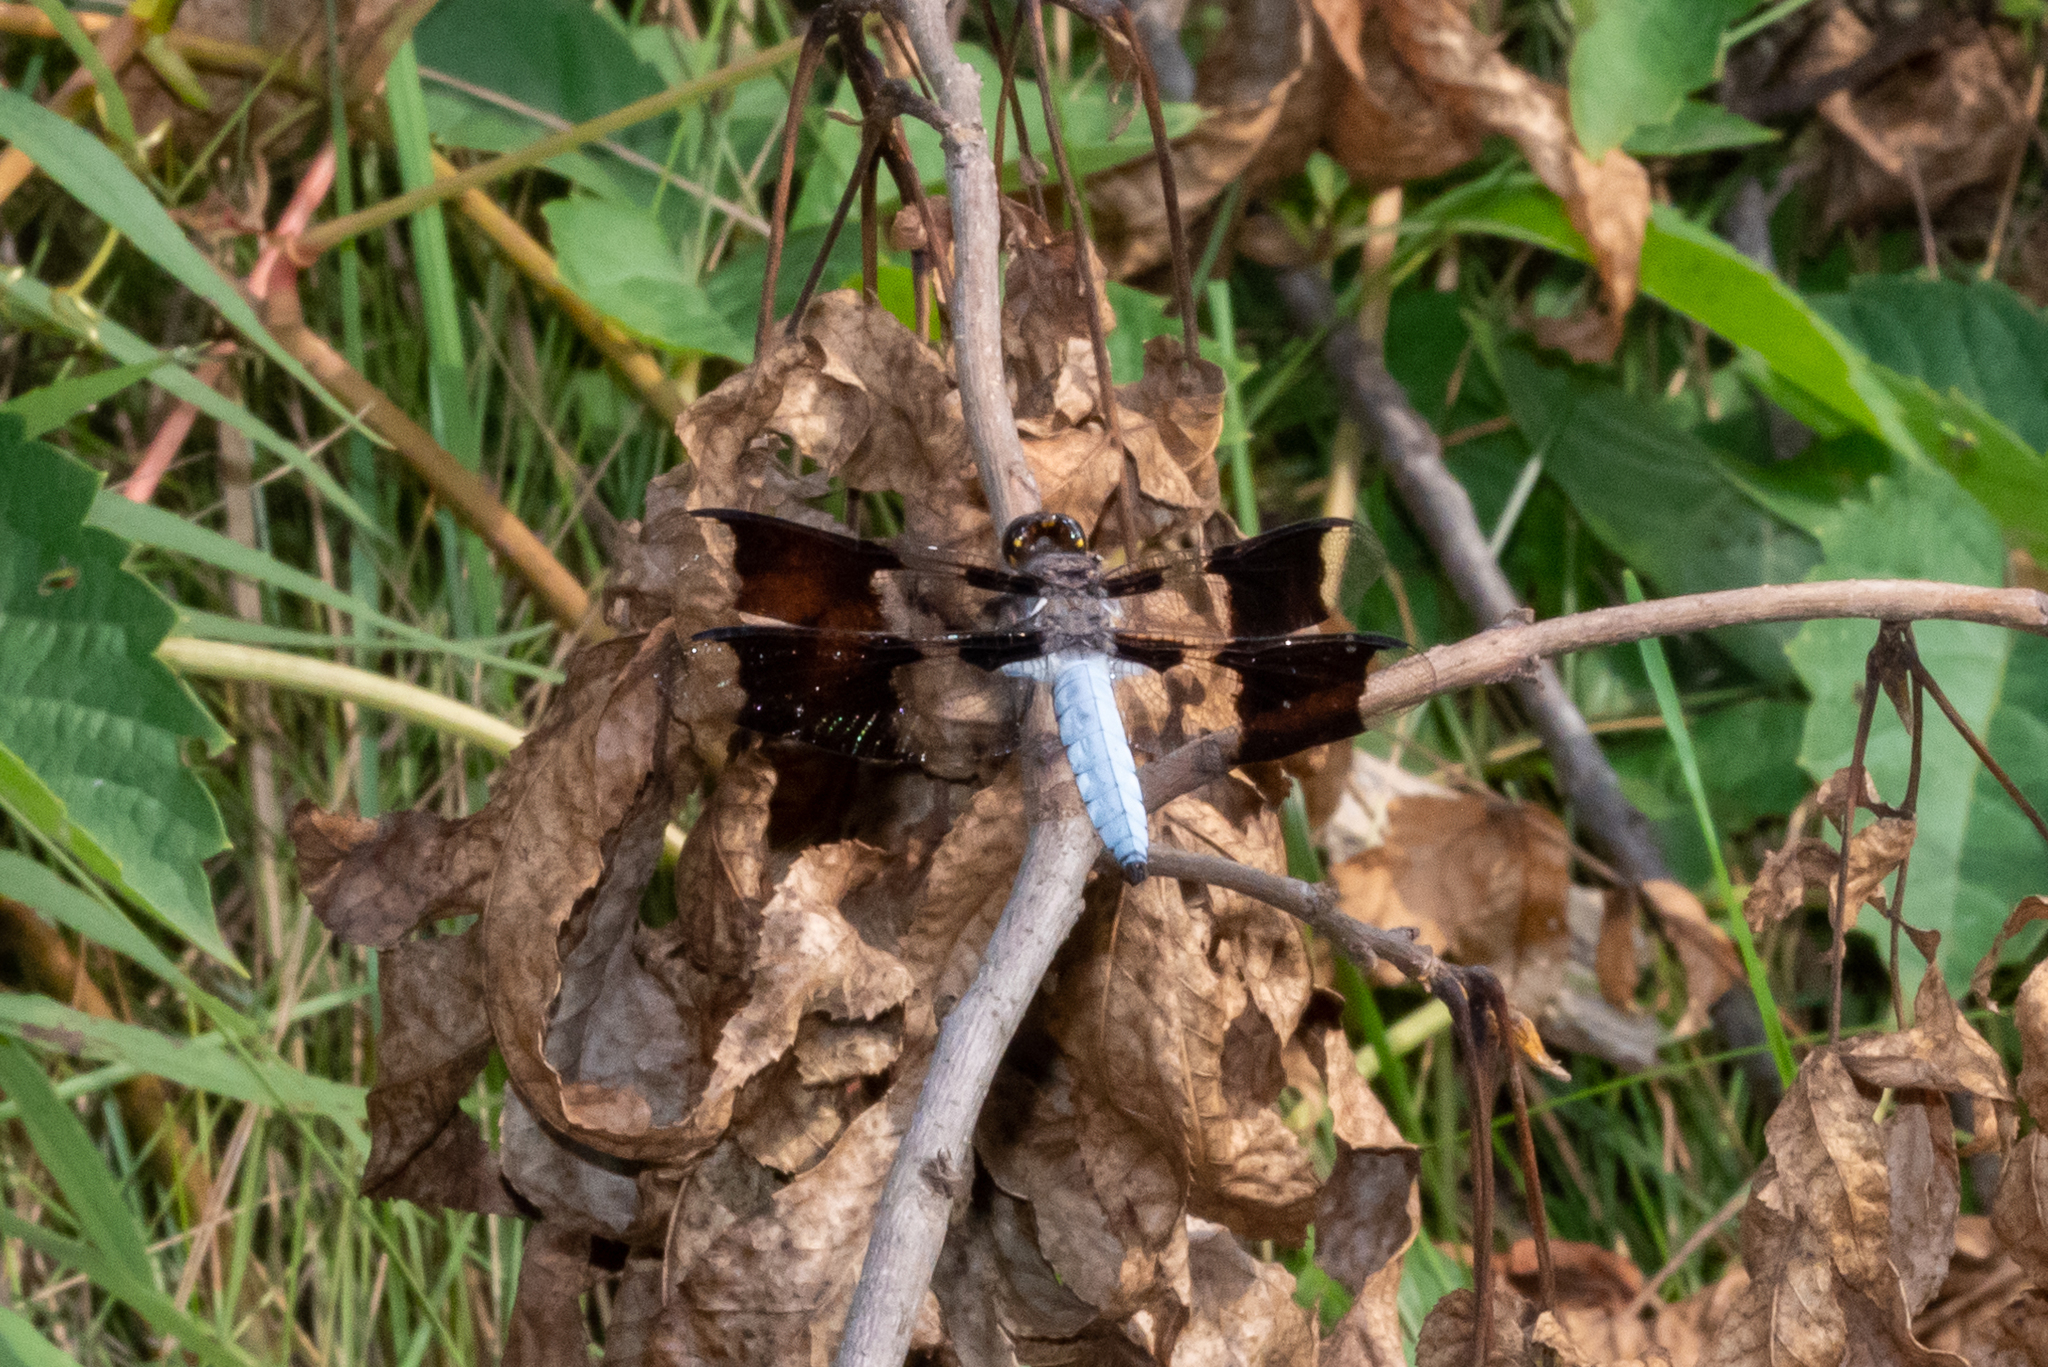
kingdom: Animalia
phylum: Arthropoda
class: Insecta
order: Odonata
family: Libellulidae
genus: Plathemis
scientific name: Plathemis lydia
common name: Common whitetail
